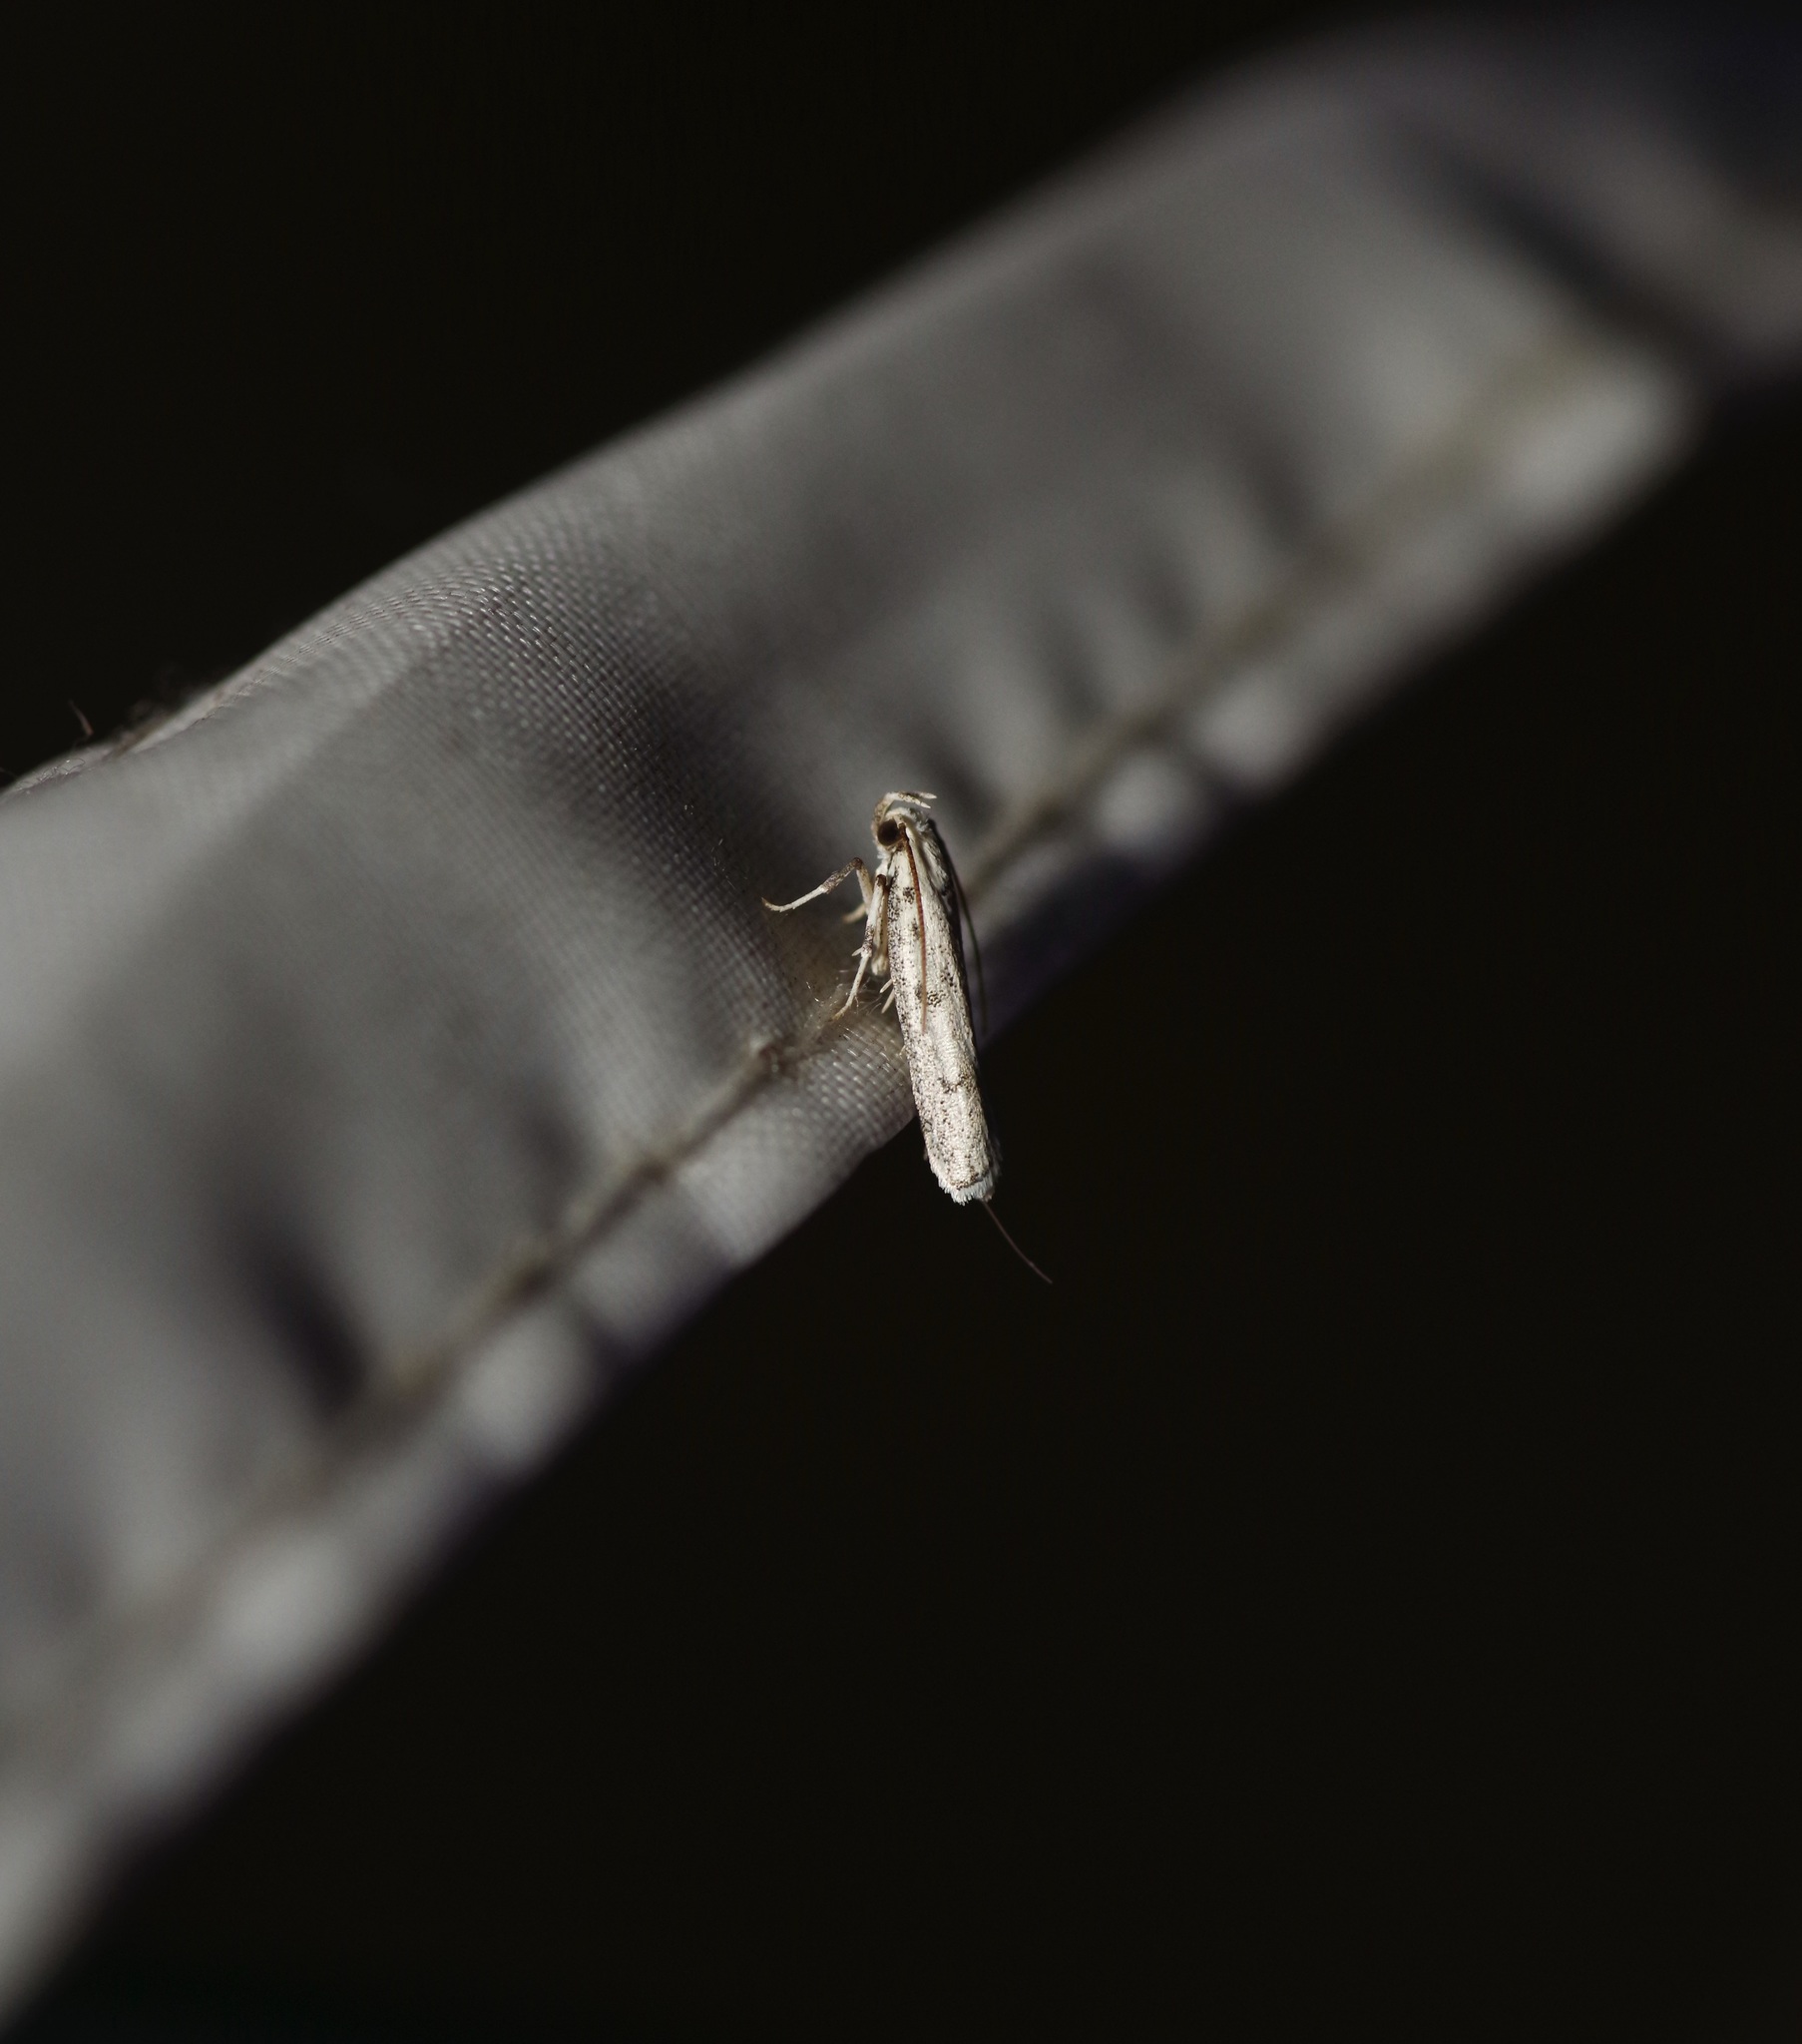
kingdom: Animalia
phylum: Arthropoda
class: Insecta
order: Lepidoptera
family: Autostichidae
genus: Glyphidocera
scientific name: Glyphidocera lactiflosella
